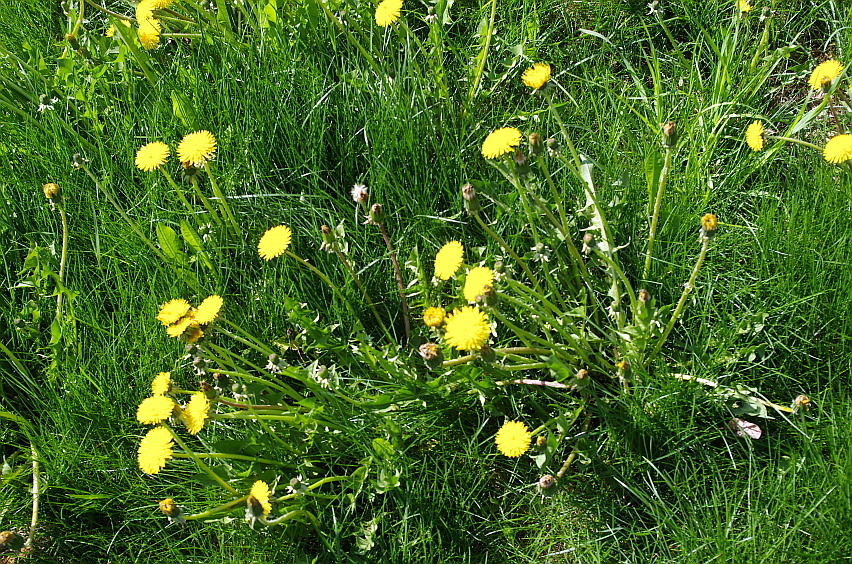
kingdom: Plantae
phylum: Tracheophyta
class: Magnoliopsida
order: Asterales
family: Asteraceae
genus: Taraxacum
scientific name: Taraxacum officinale
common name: Common dandelion
